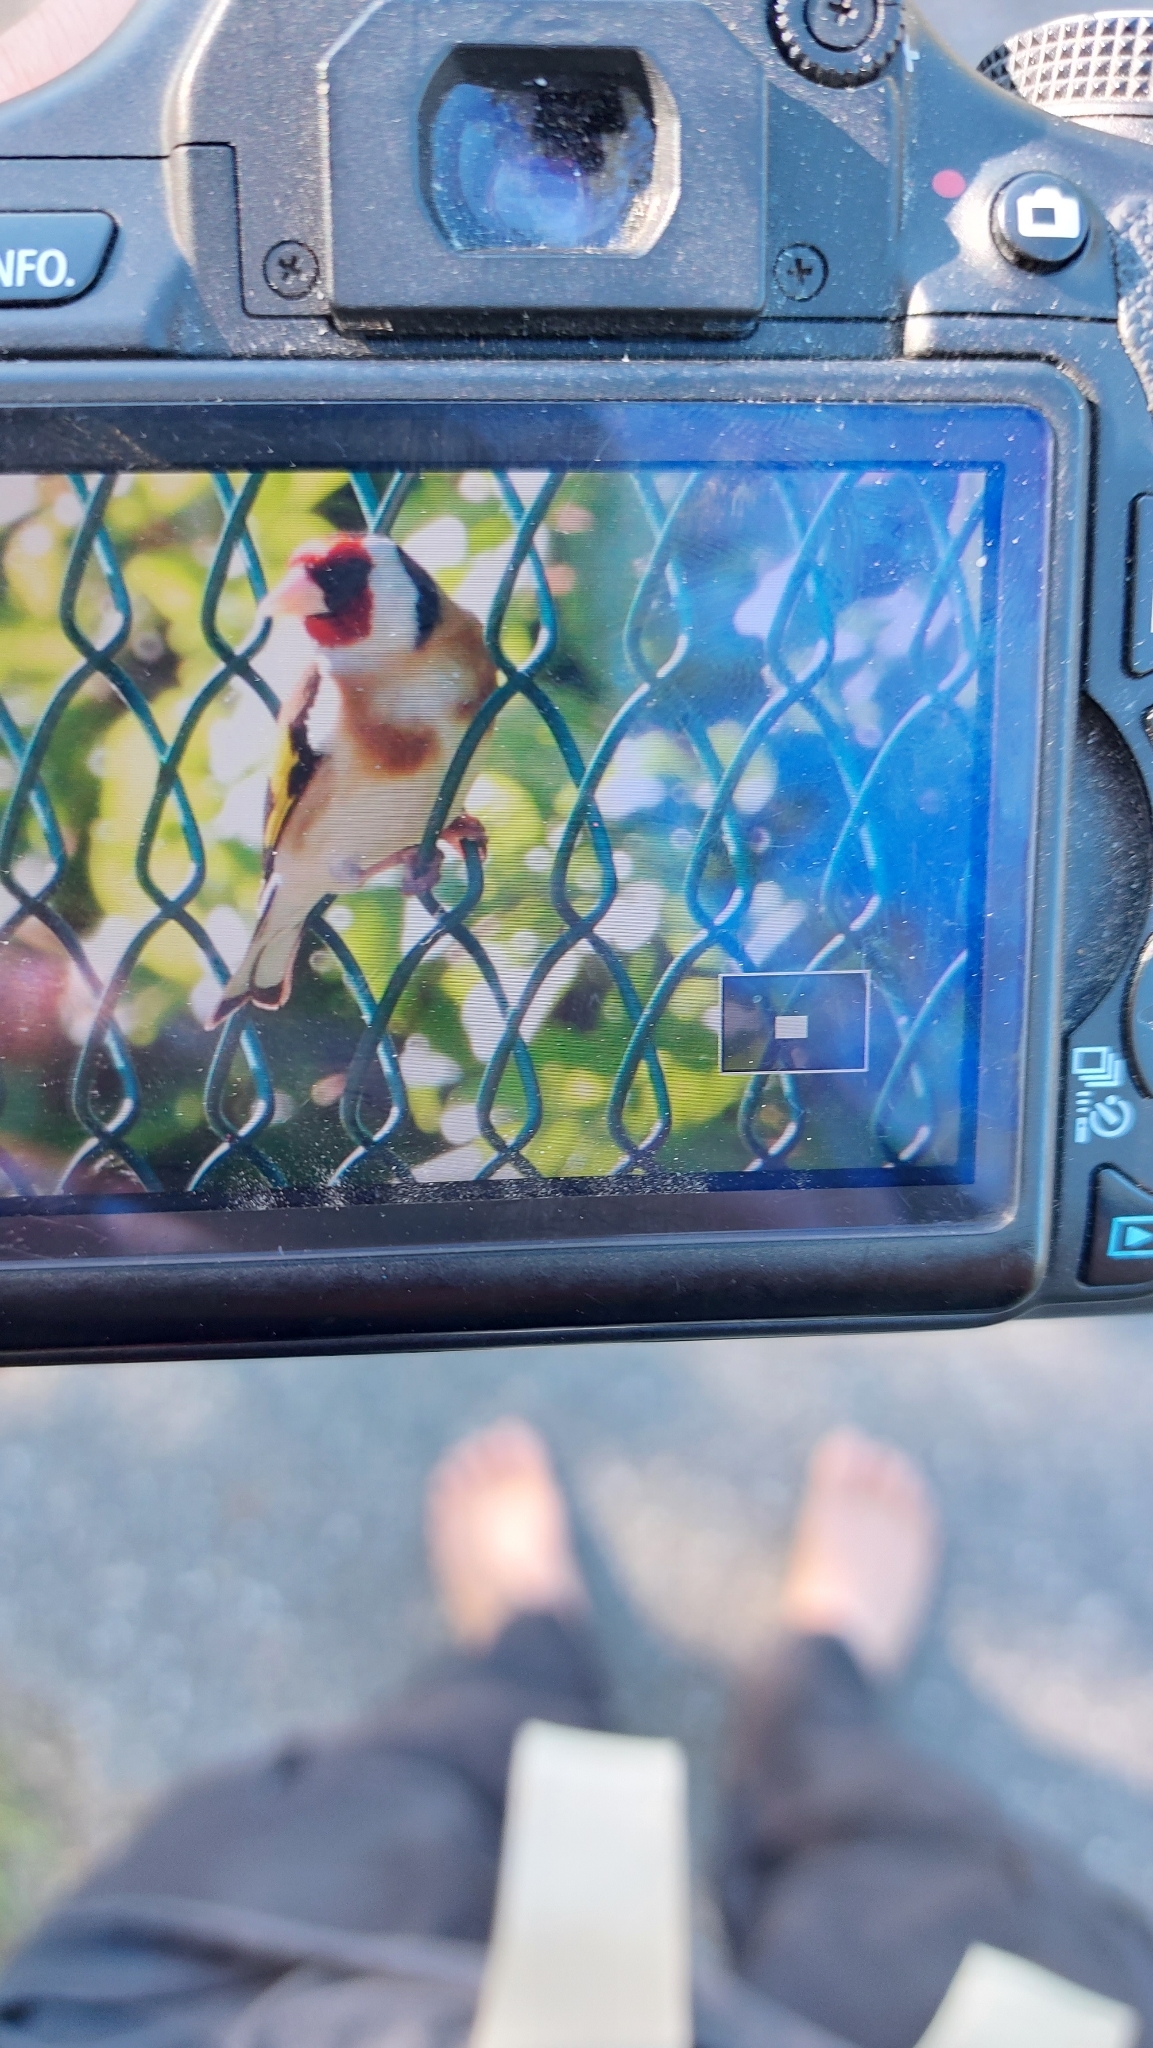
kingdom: Animalia
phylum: Chordata
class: Aves
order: Passeriformes
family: Fringillidae
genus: Carduelis
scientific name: Carduelis carduelis
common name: European goldfinch
